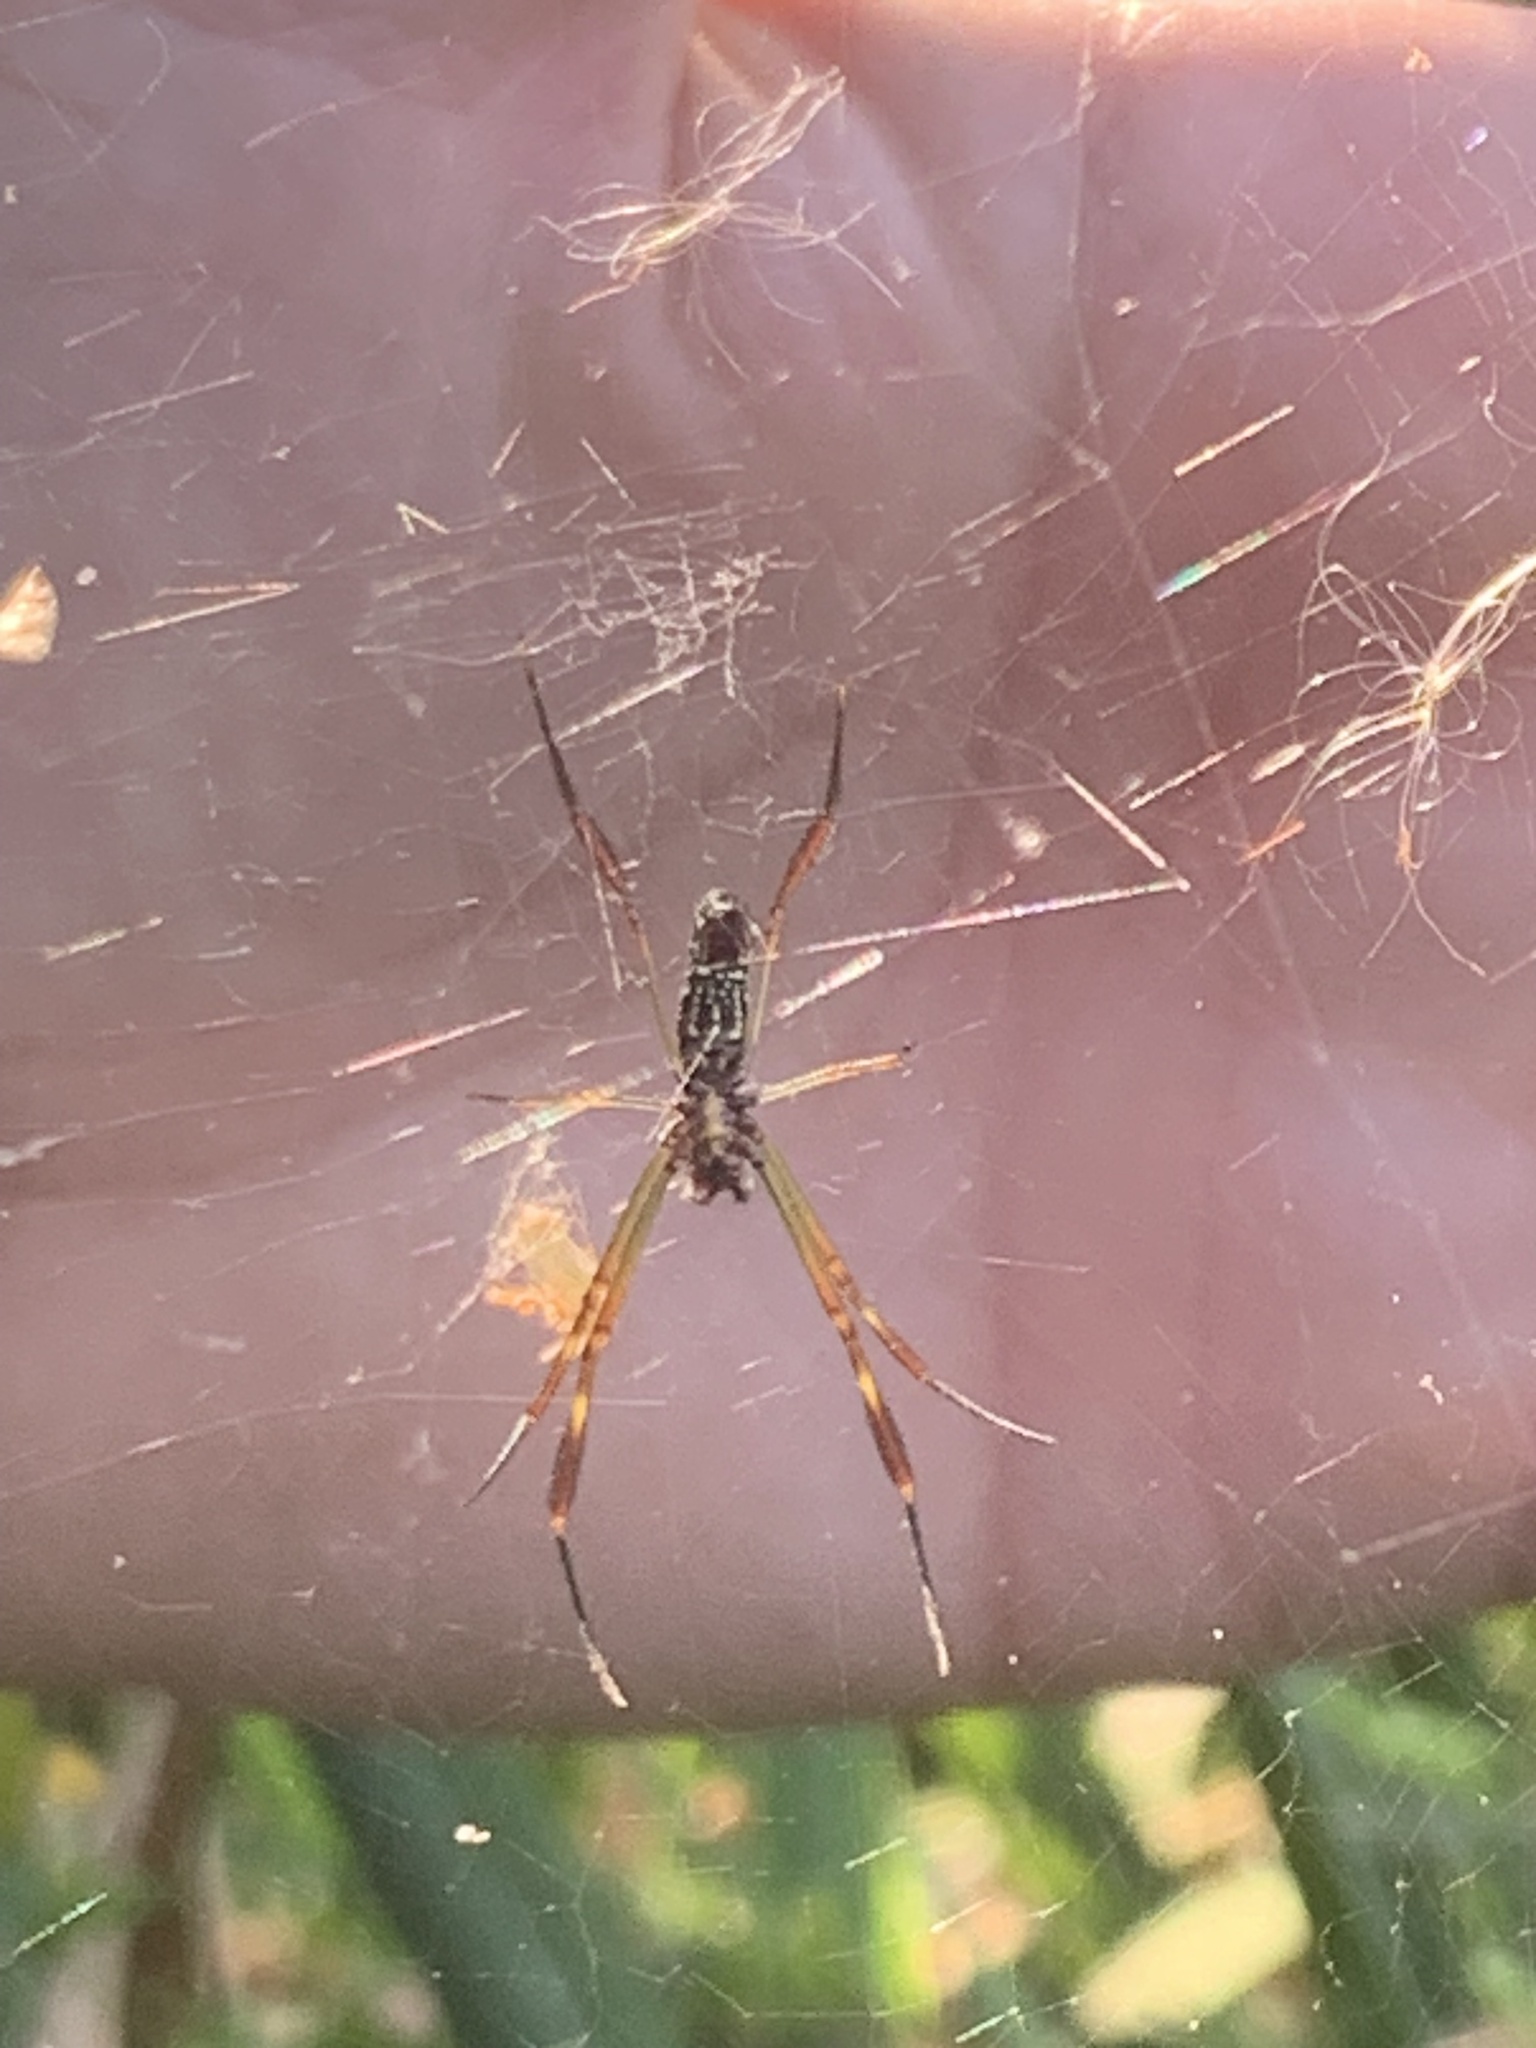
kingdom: Animalia
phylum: Arthropoda
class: Arachnida
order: Araneae
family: Araneidae
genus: Trichonephila
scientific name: Trichonephila clavipes
